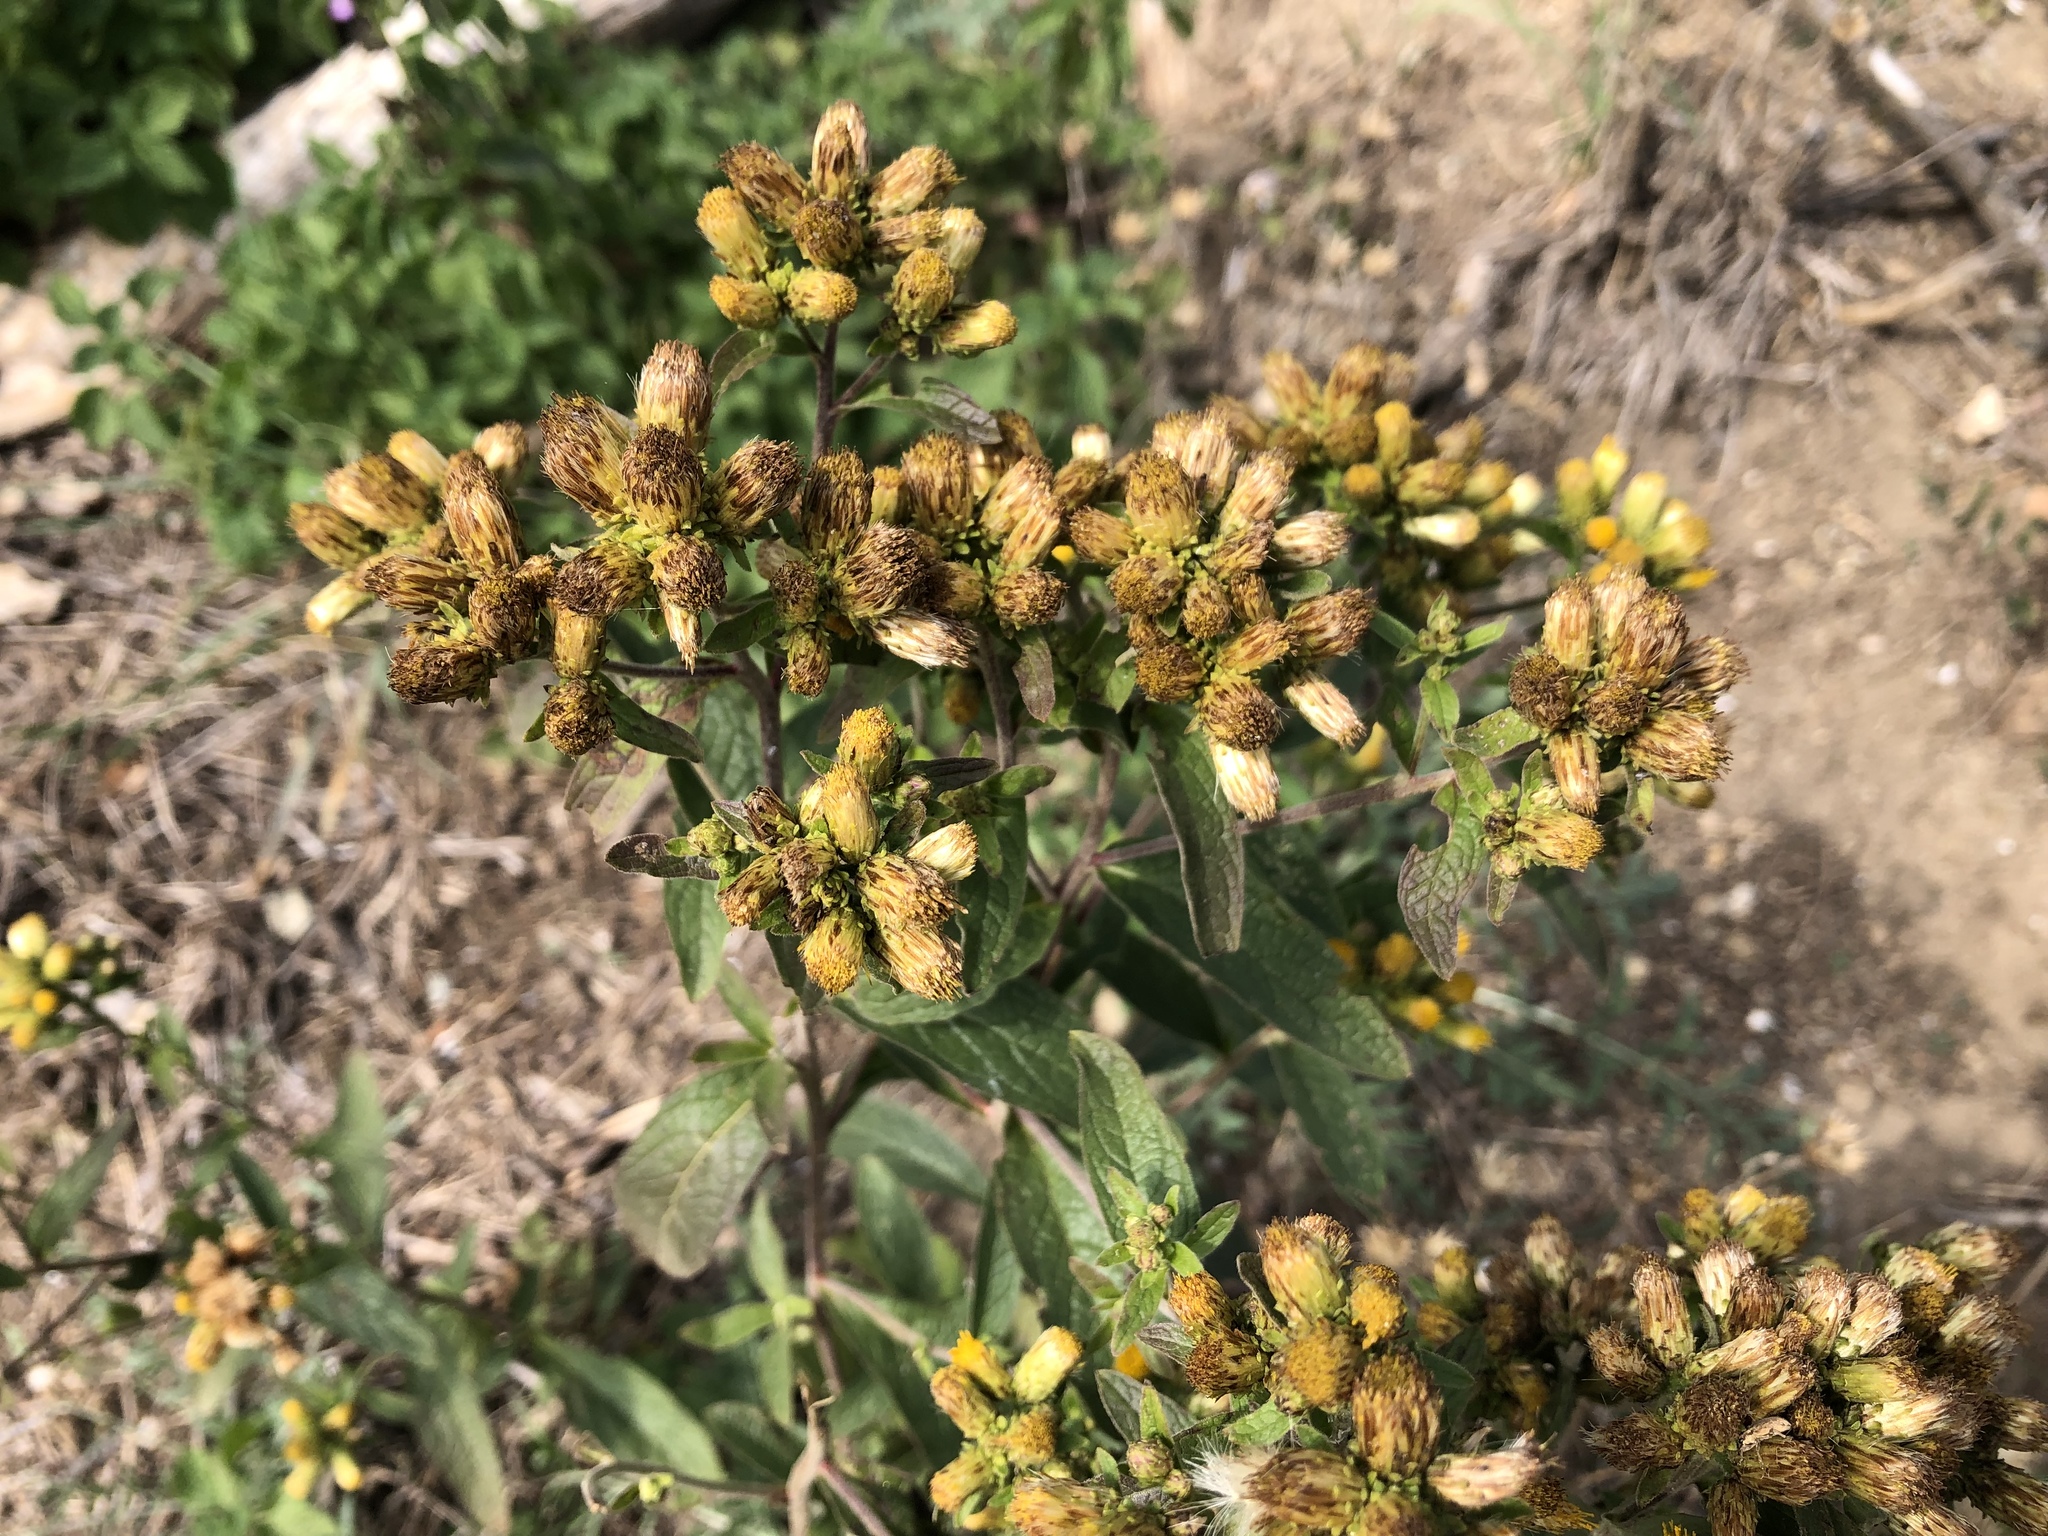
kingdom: Plantae
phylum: Tracheophyta
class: Magnoliopsida
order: Asterales
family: Asteraceae
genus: Pentanema
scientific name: Pentanema squarrosum
